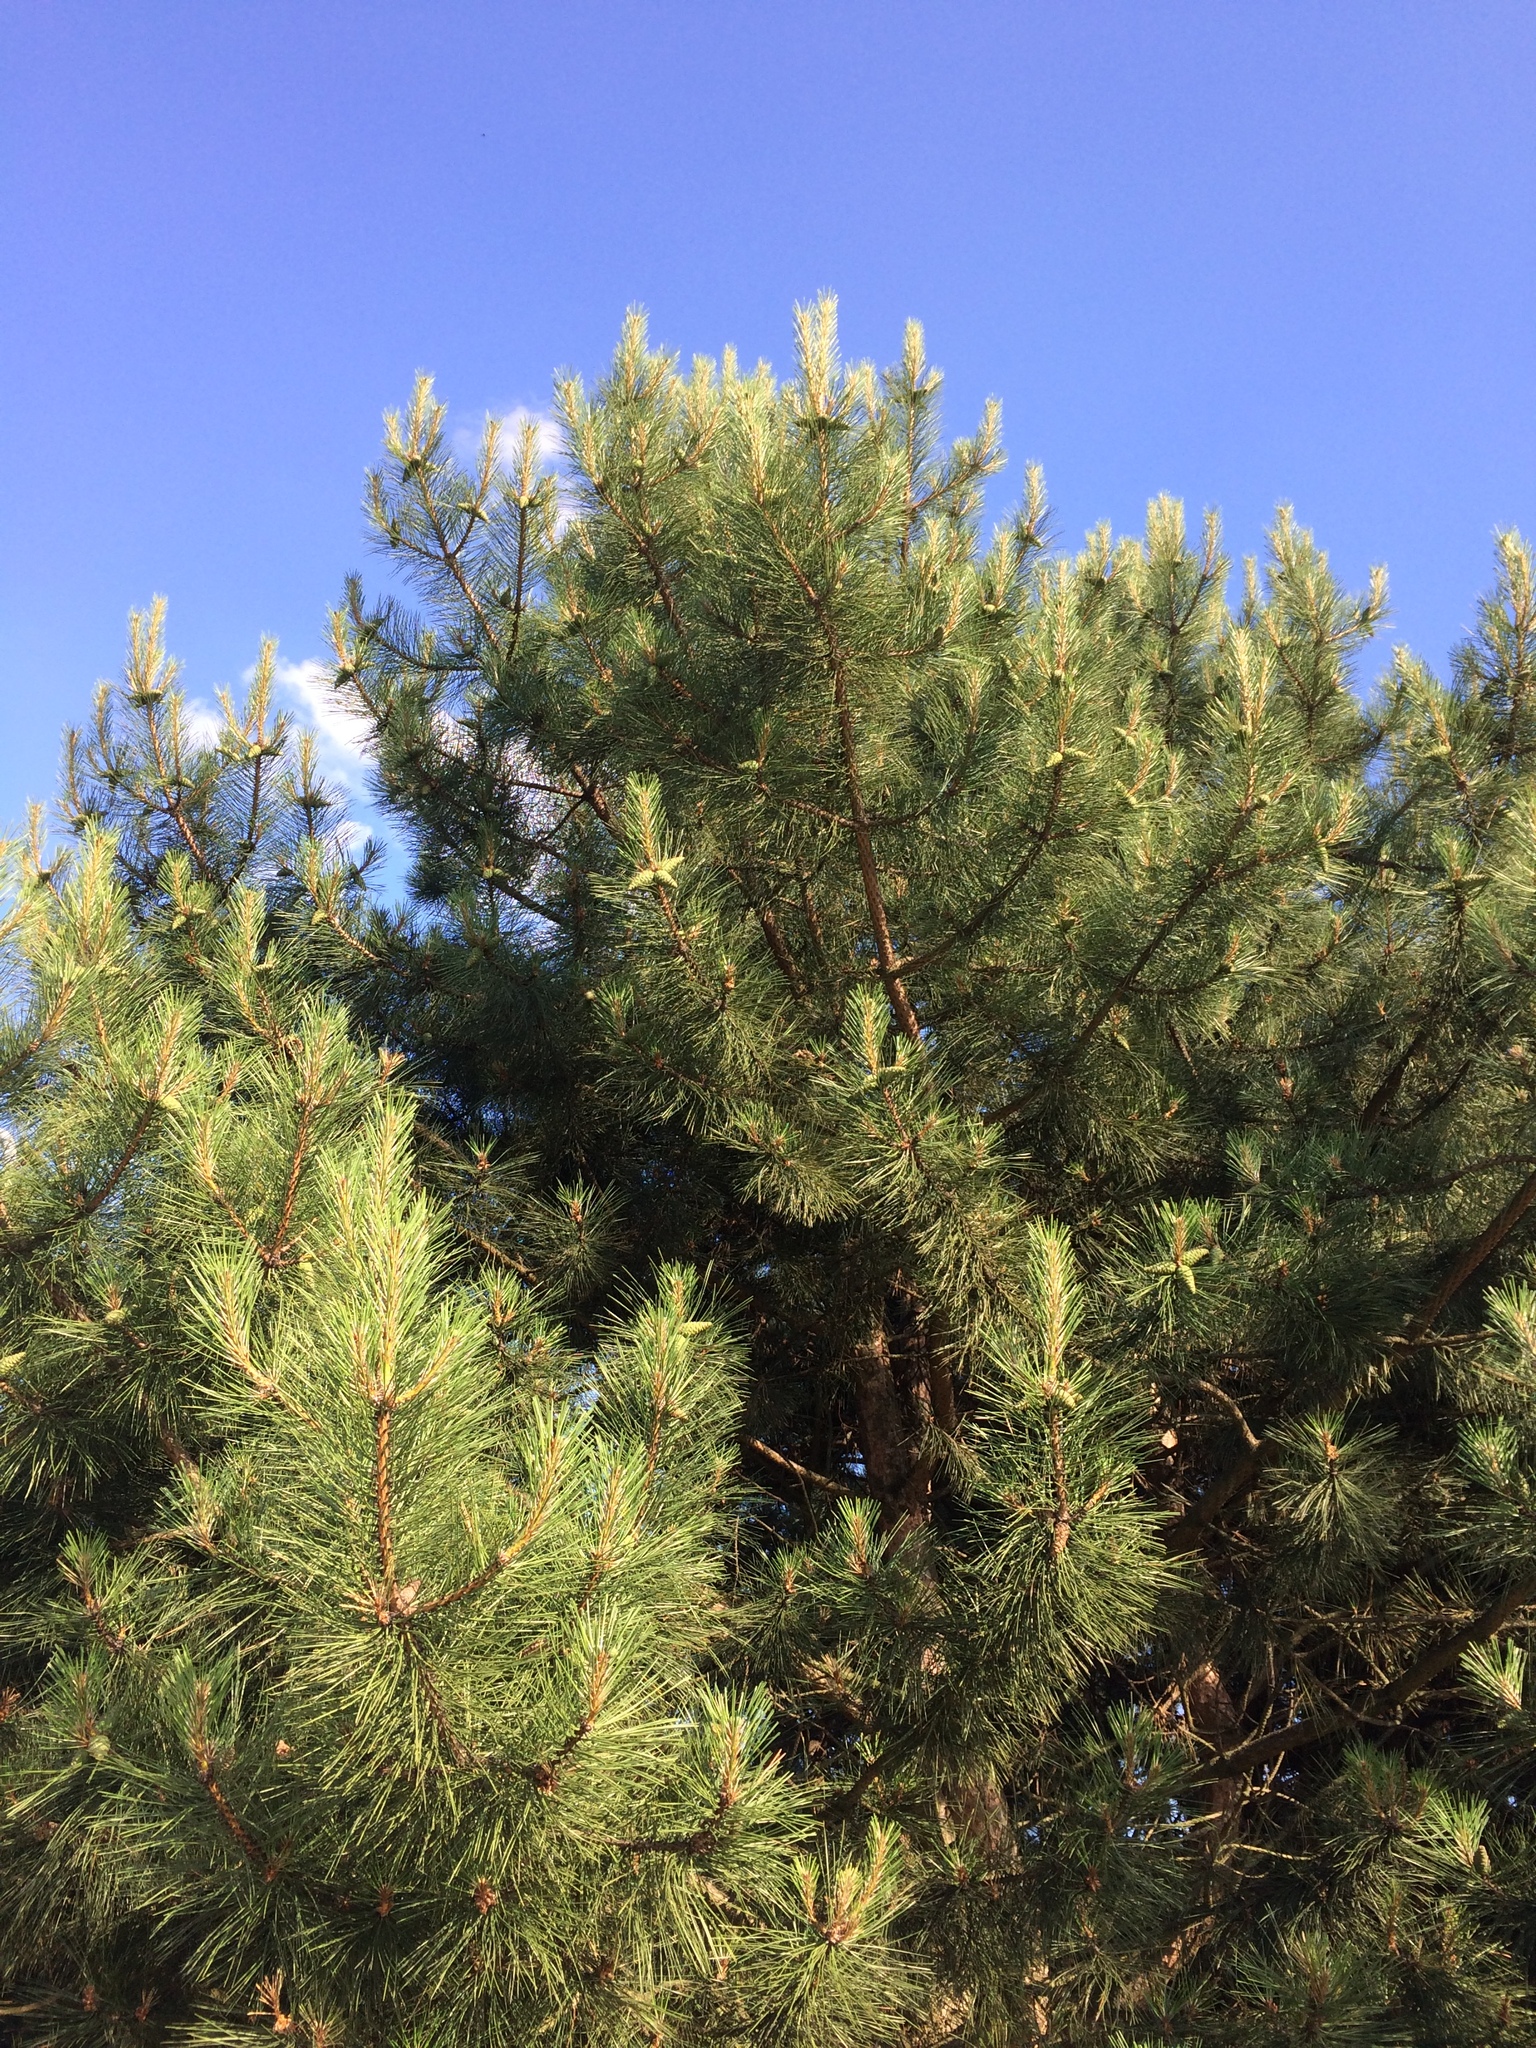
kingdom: Plantae
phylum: Tracheophyta
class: Pinopsida
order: Pinales
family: Pinaceae
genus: Pinus
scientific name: Pinus sylvestris
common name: Scots pine
